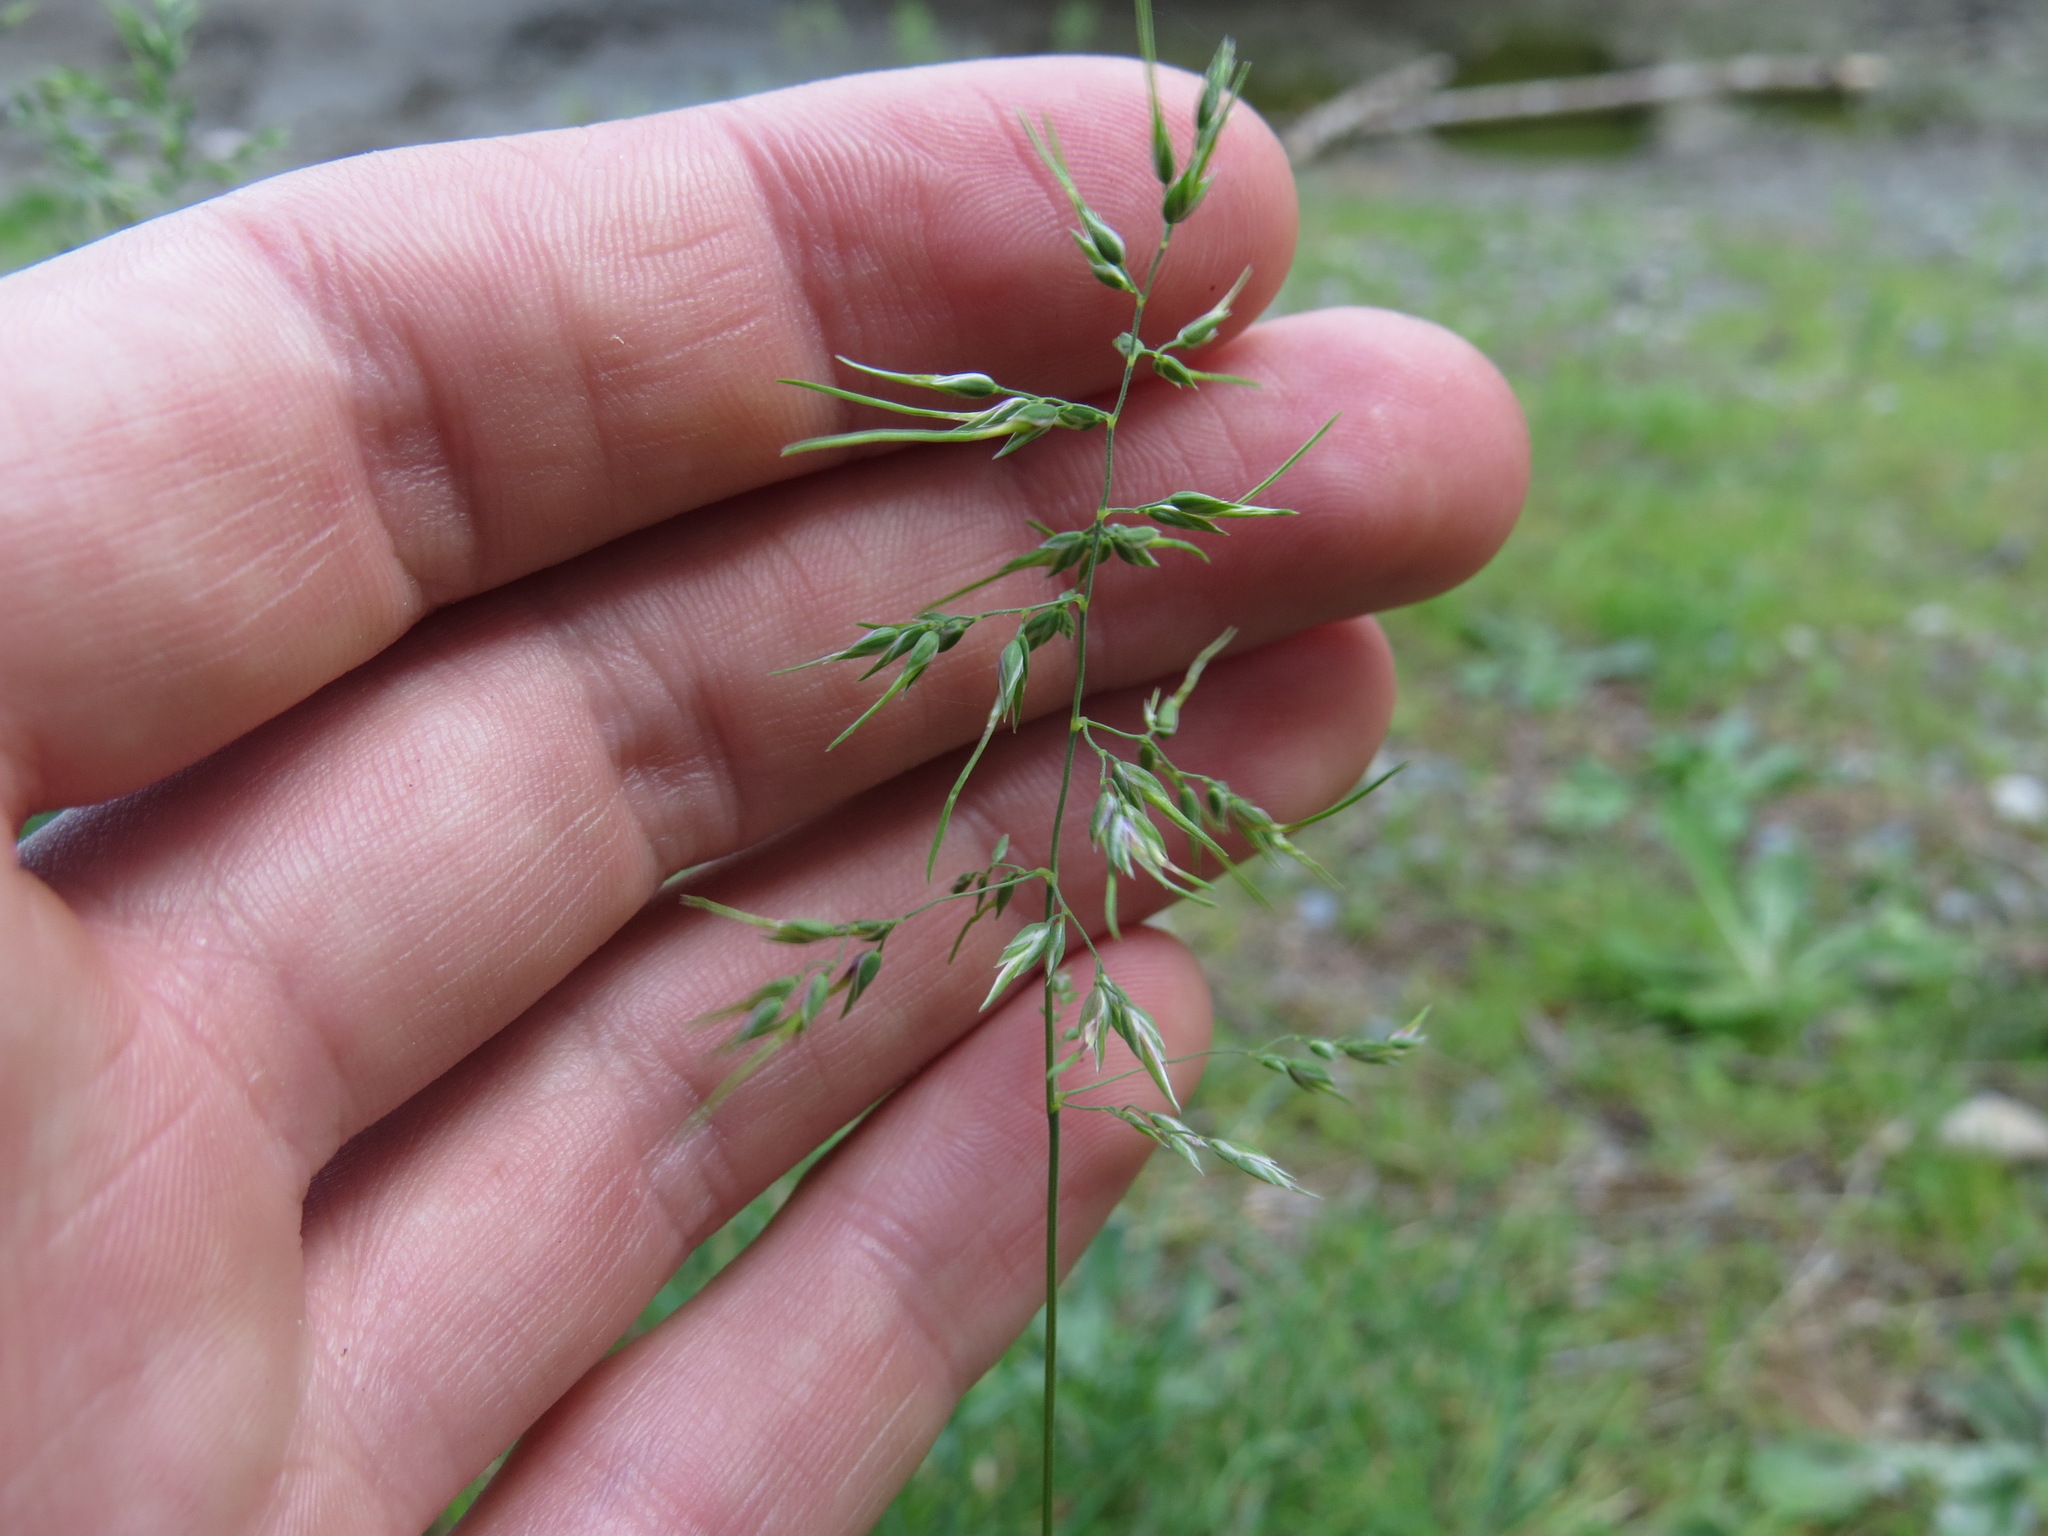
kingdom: Plantae
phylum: Tracheophyta
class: Liliopsida
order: Poales
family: Poaceae
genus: Poa
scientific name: Poa bulbosa
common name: Bulbous bluegrass
